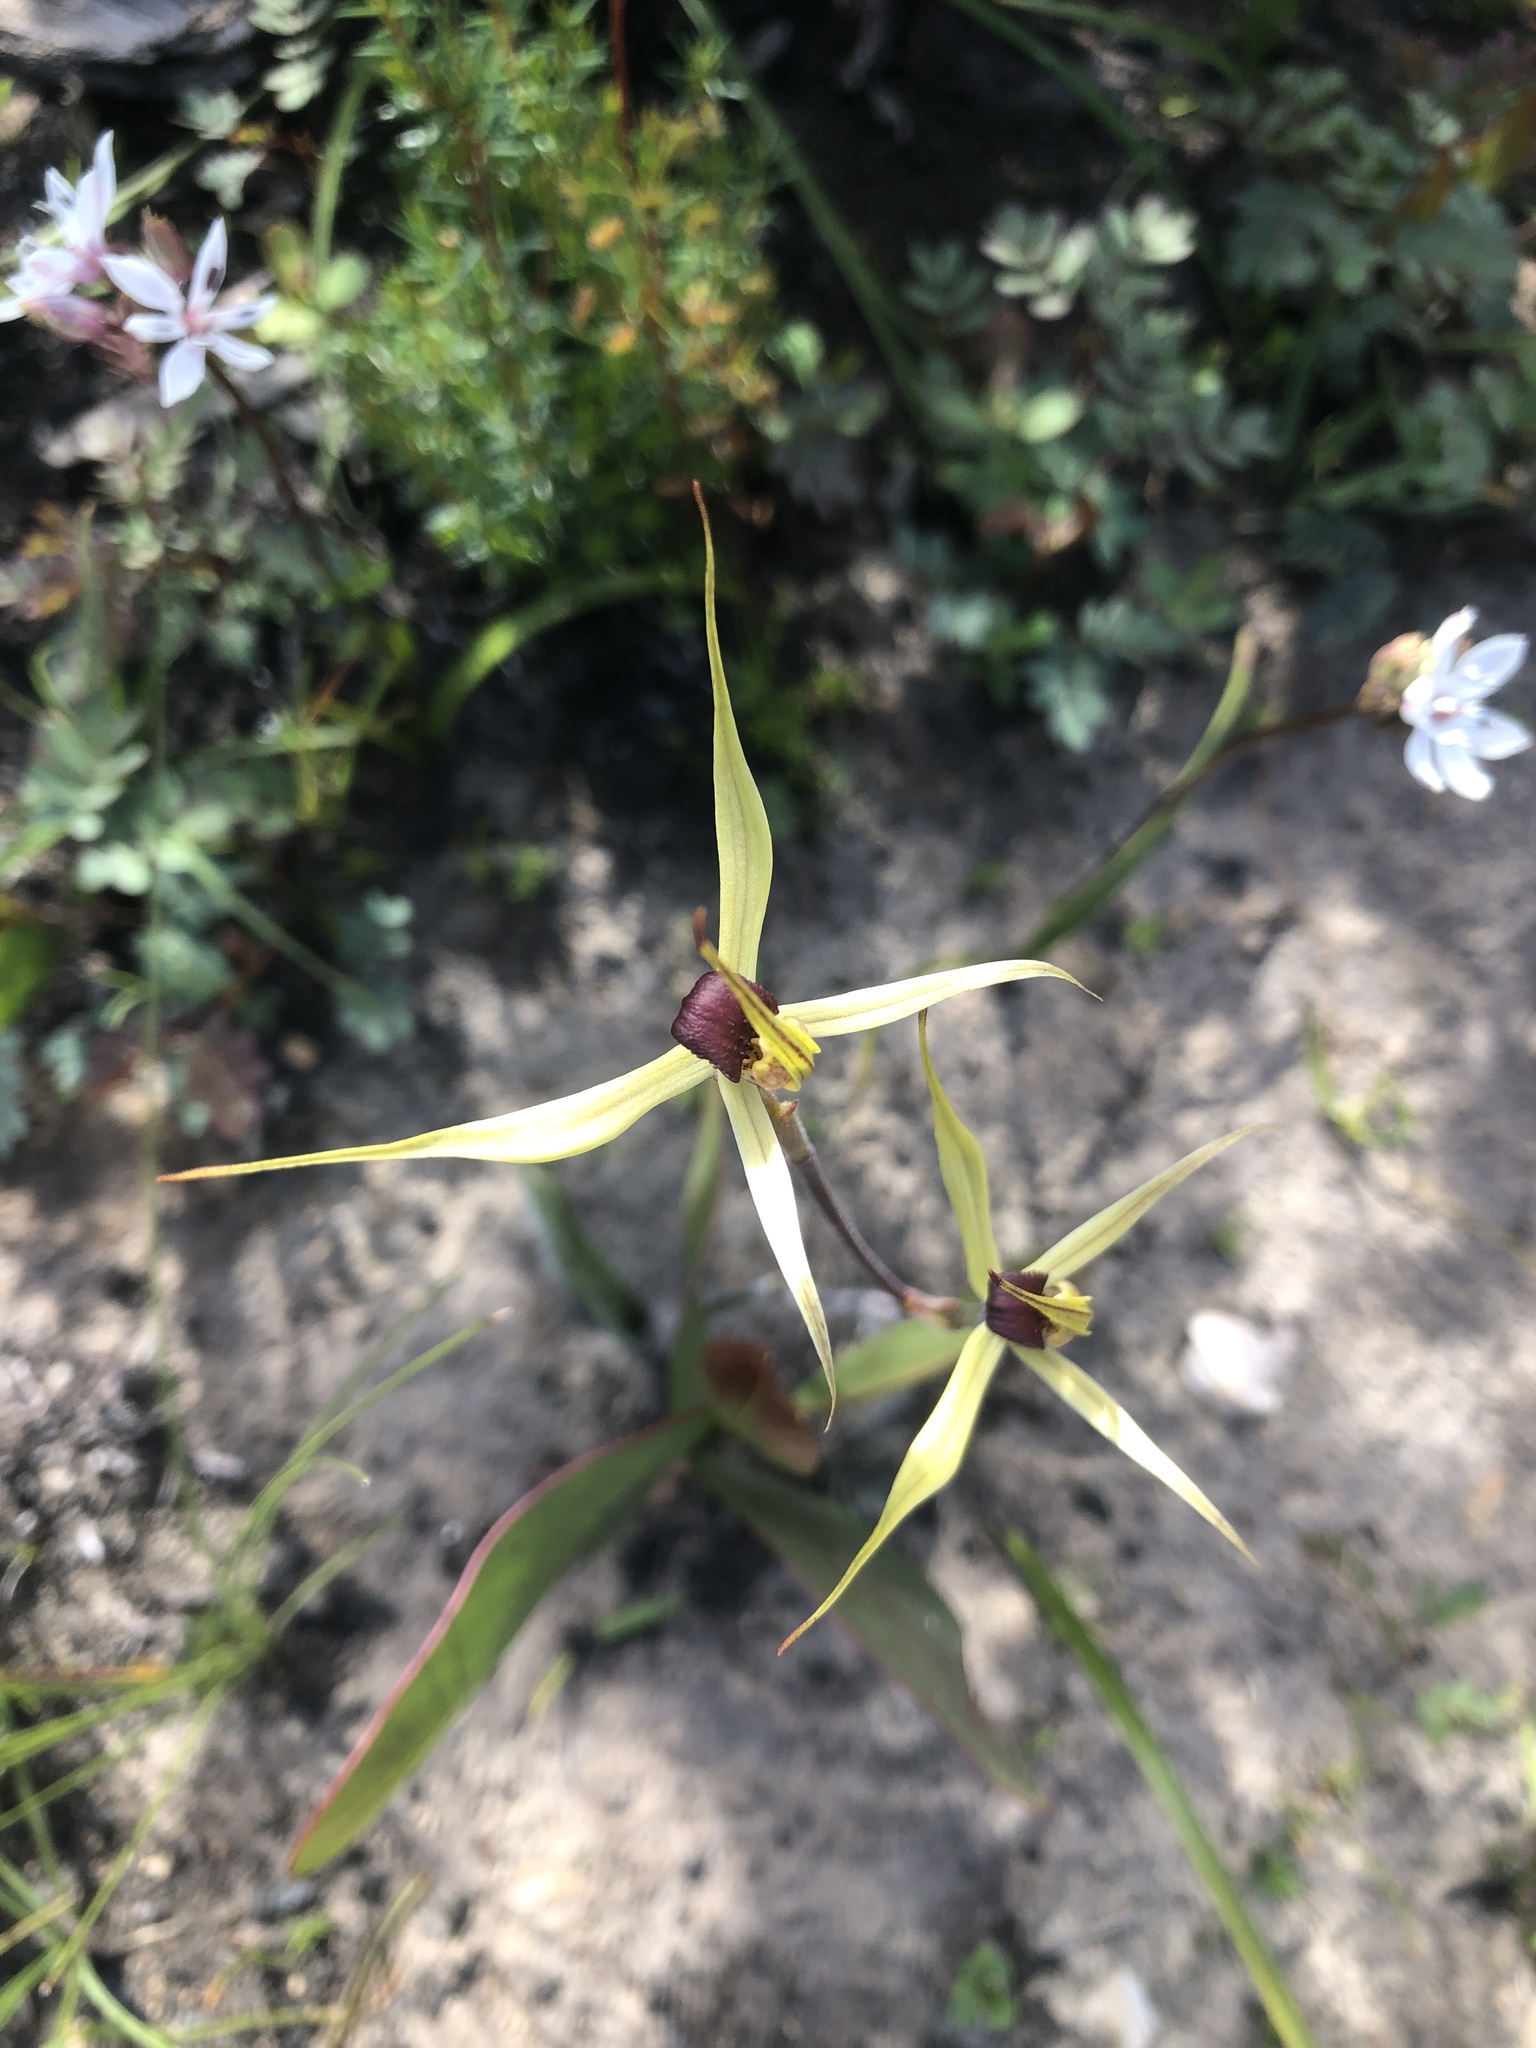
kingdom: Plantae
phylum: Tracheophyta
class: Liliopsida
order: Asparagales
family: Orchidaceae
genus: Caladenia
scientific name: Caladenia leptochila
